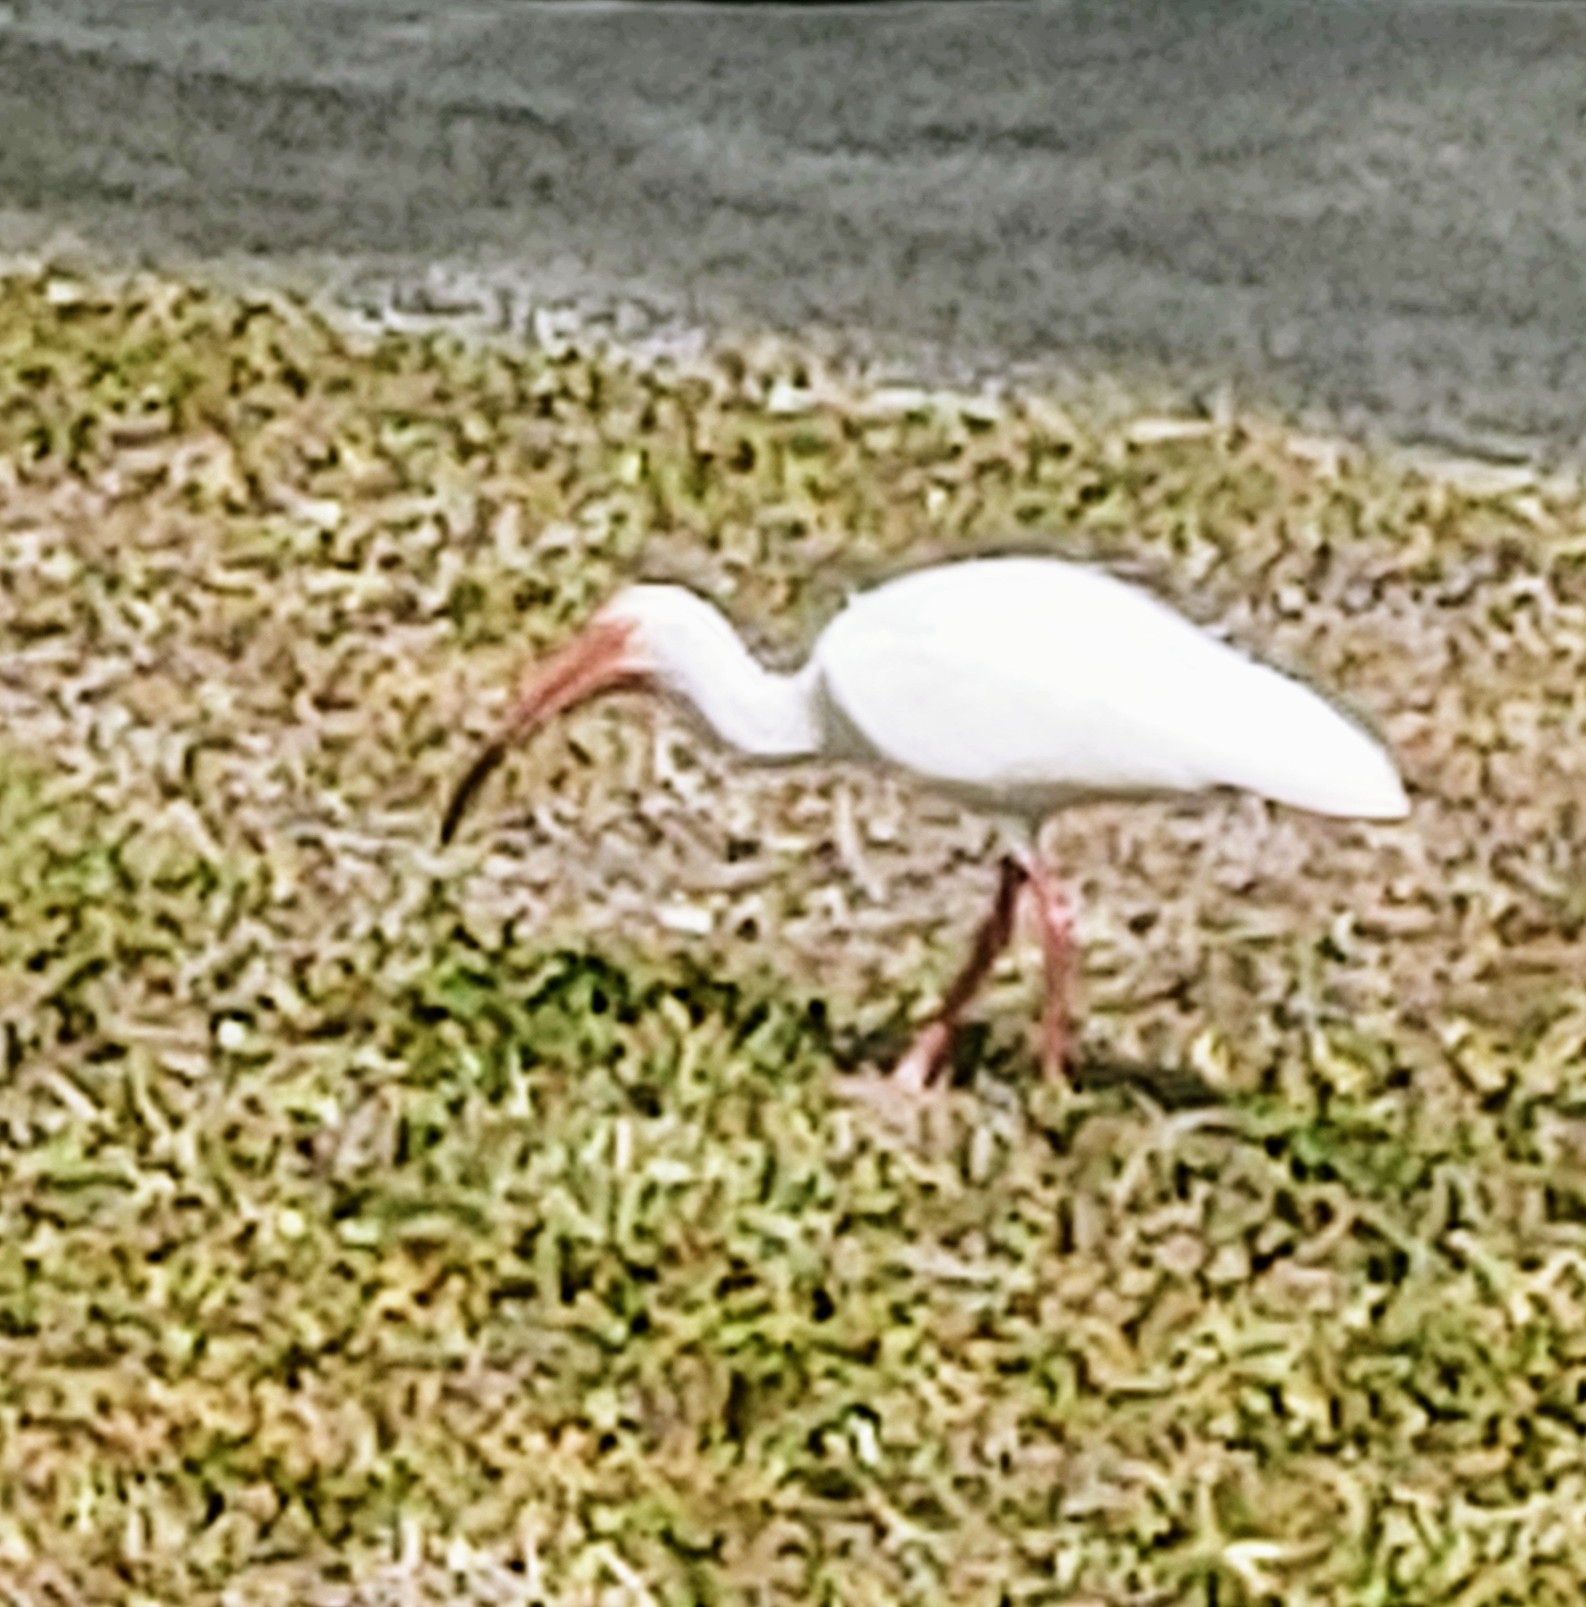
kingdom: Animalia
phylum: Chordata
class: Aves
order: Pelecaniformes
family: Threskiornithidae
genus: Eudocimus
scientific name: Eudocimus albus
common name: White ibis
